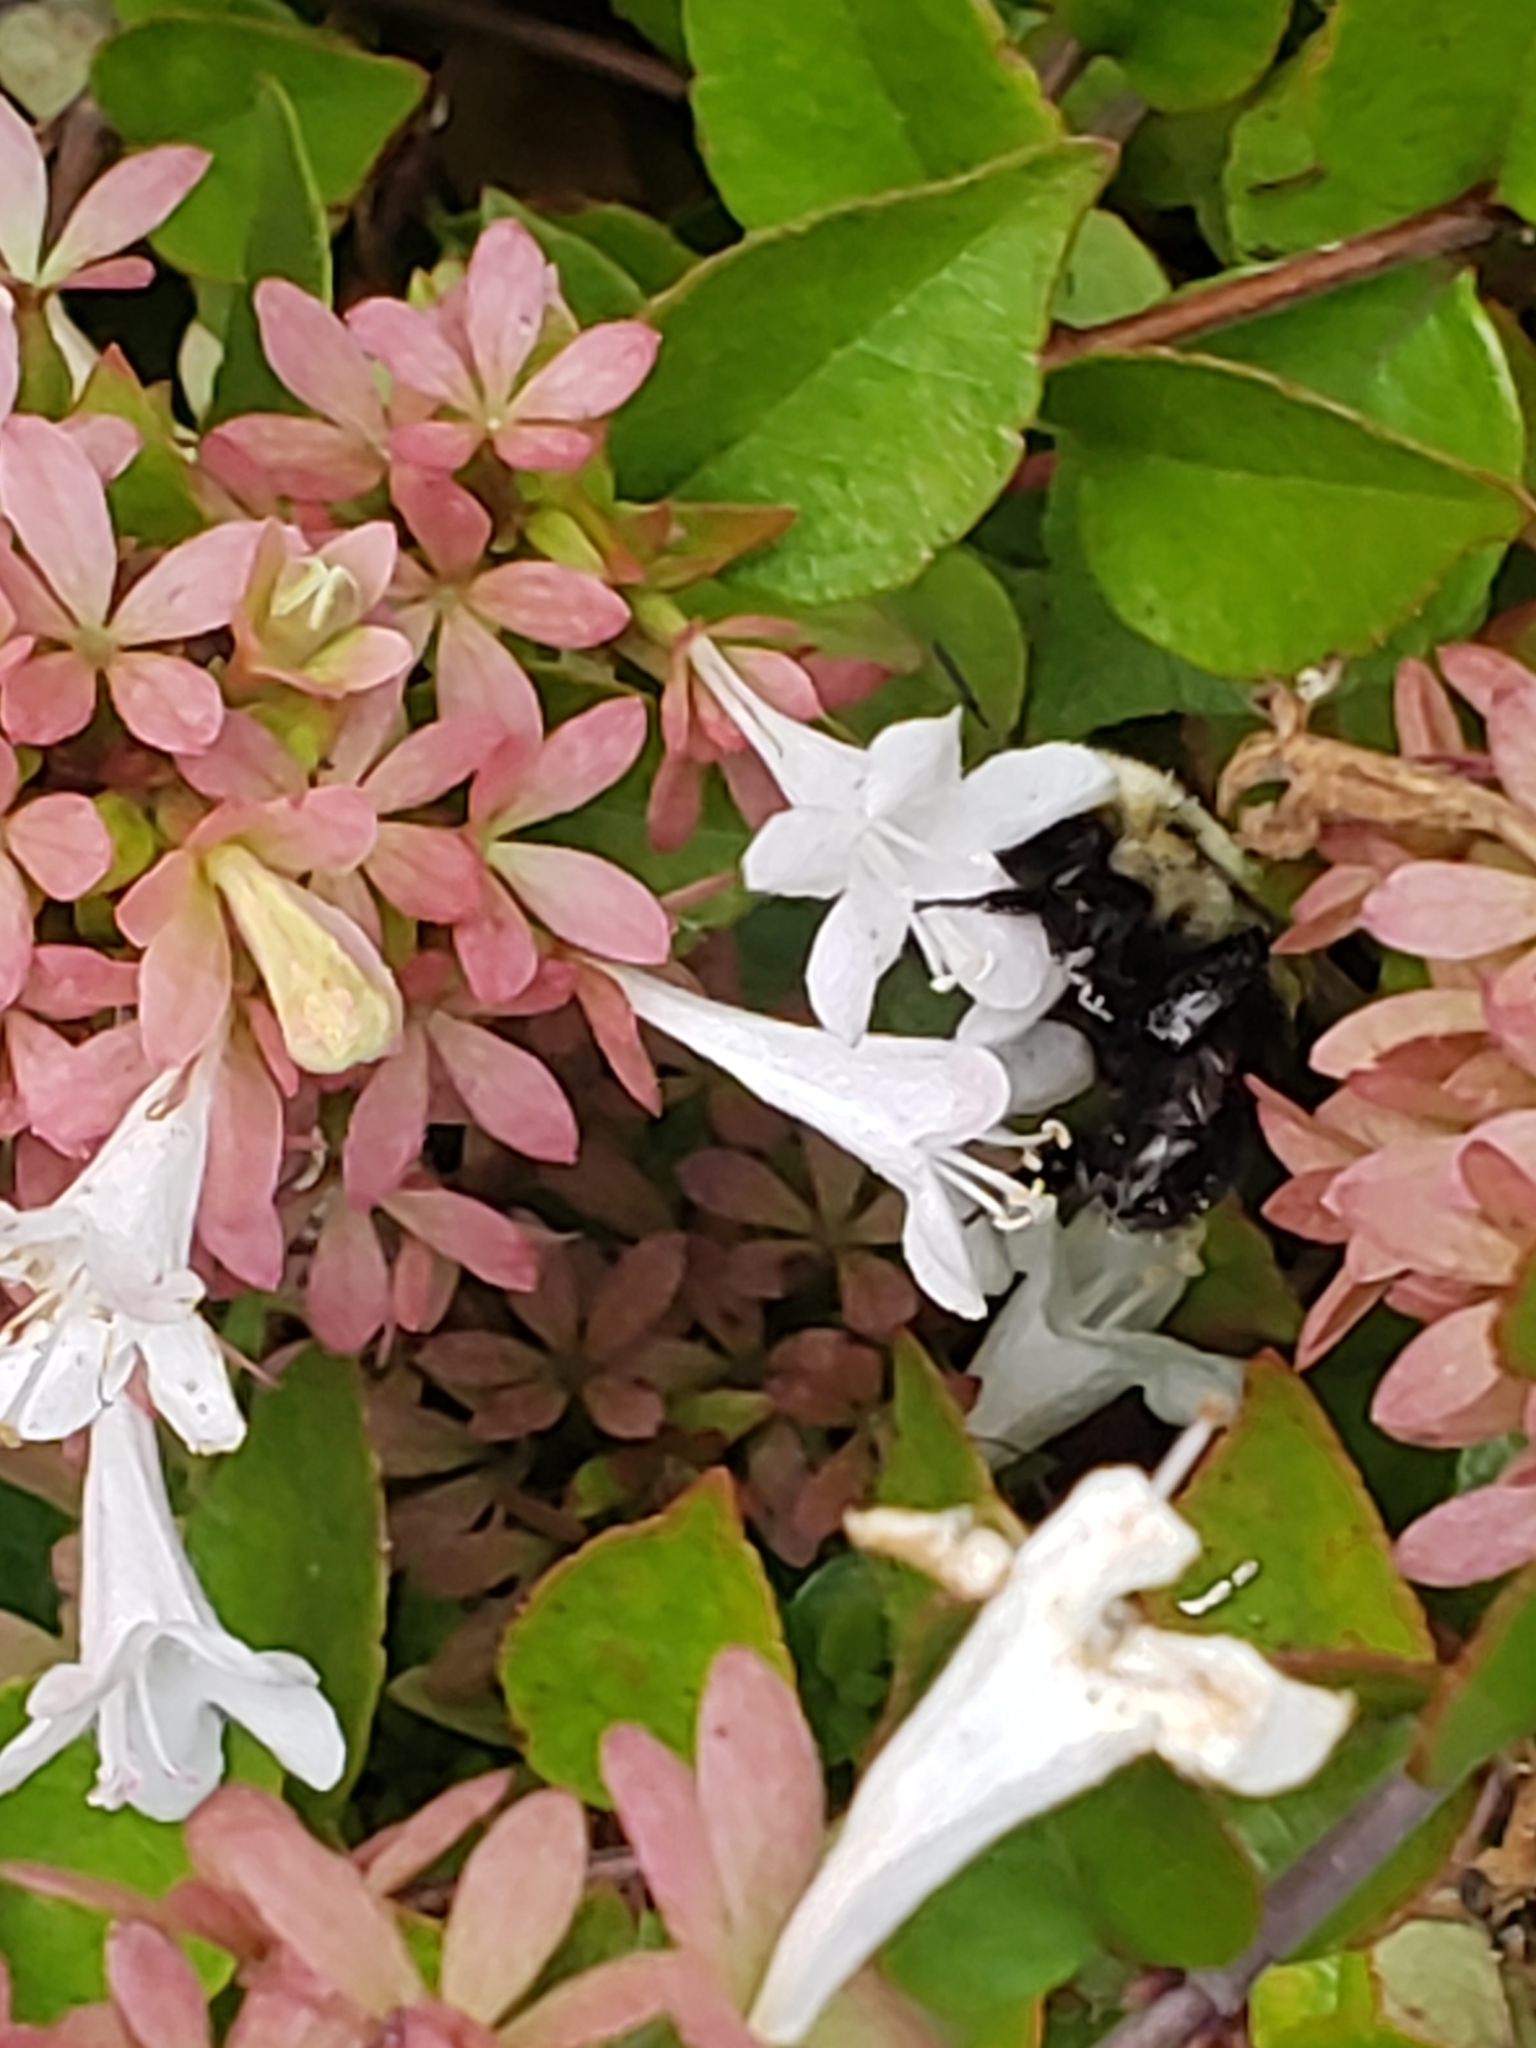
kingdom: Animalia
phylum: Arthropoda
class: Insecta
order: Hymenoptera
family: Apidae
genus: Bombus
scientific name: Bombus impatiens
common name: Common eastern bumble bee
